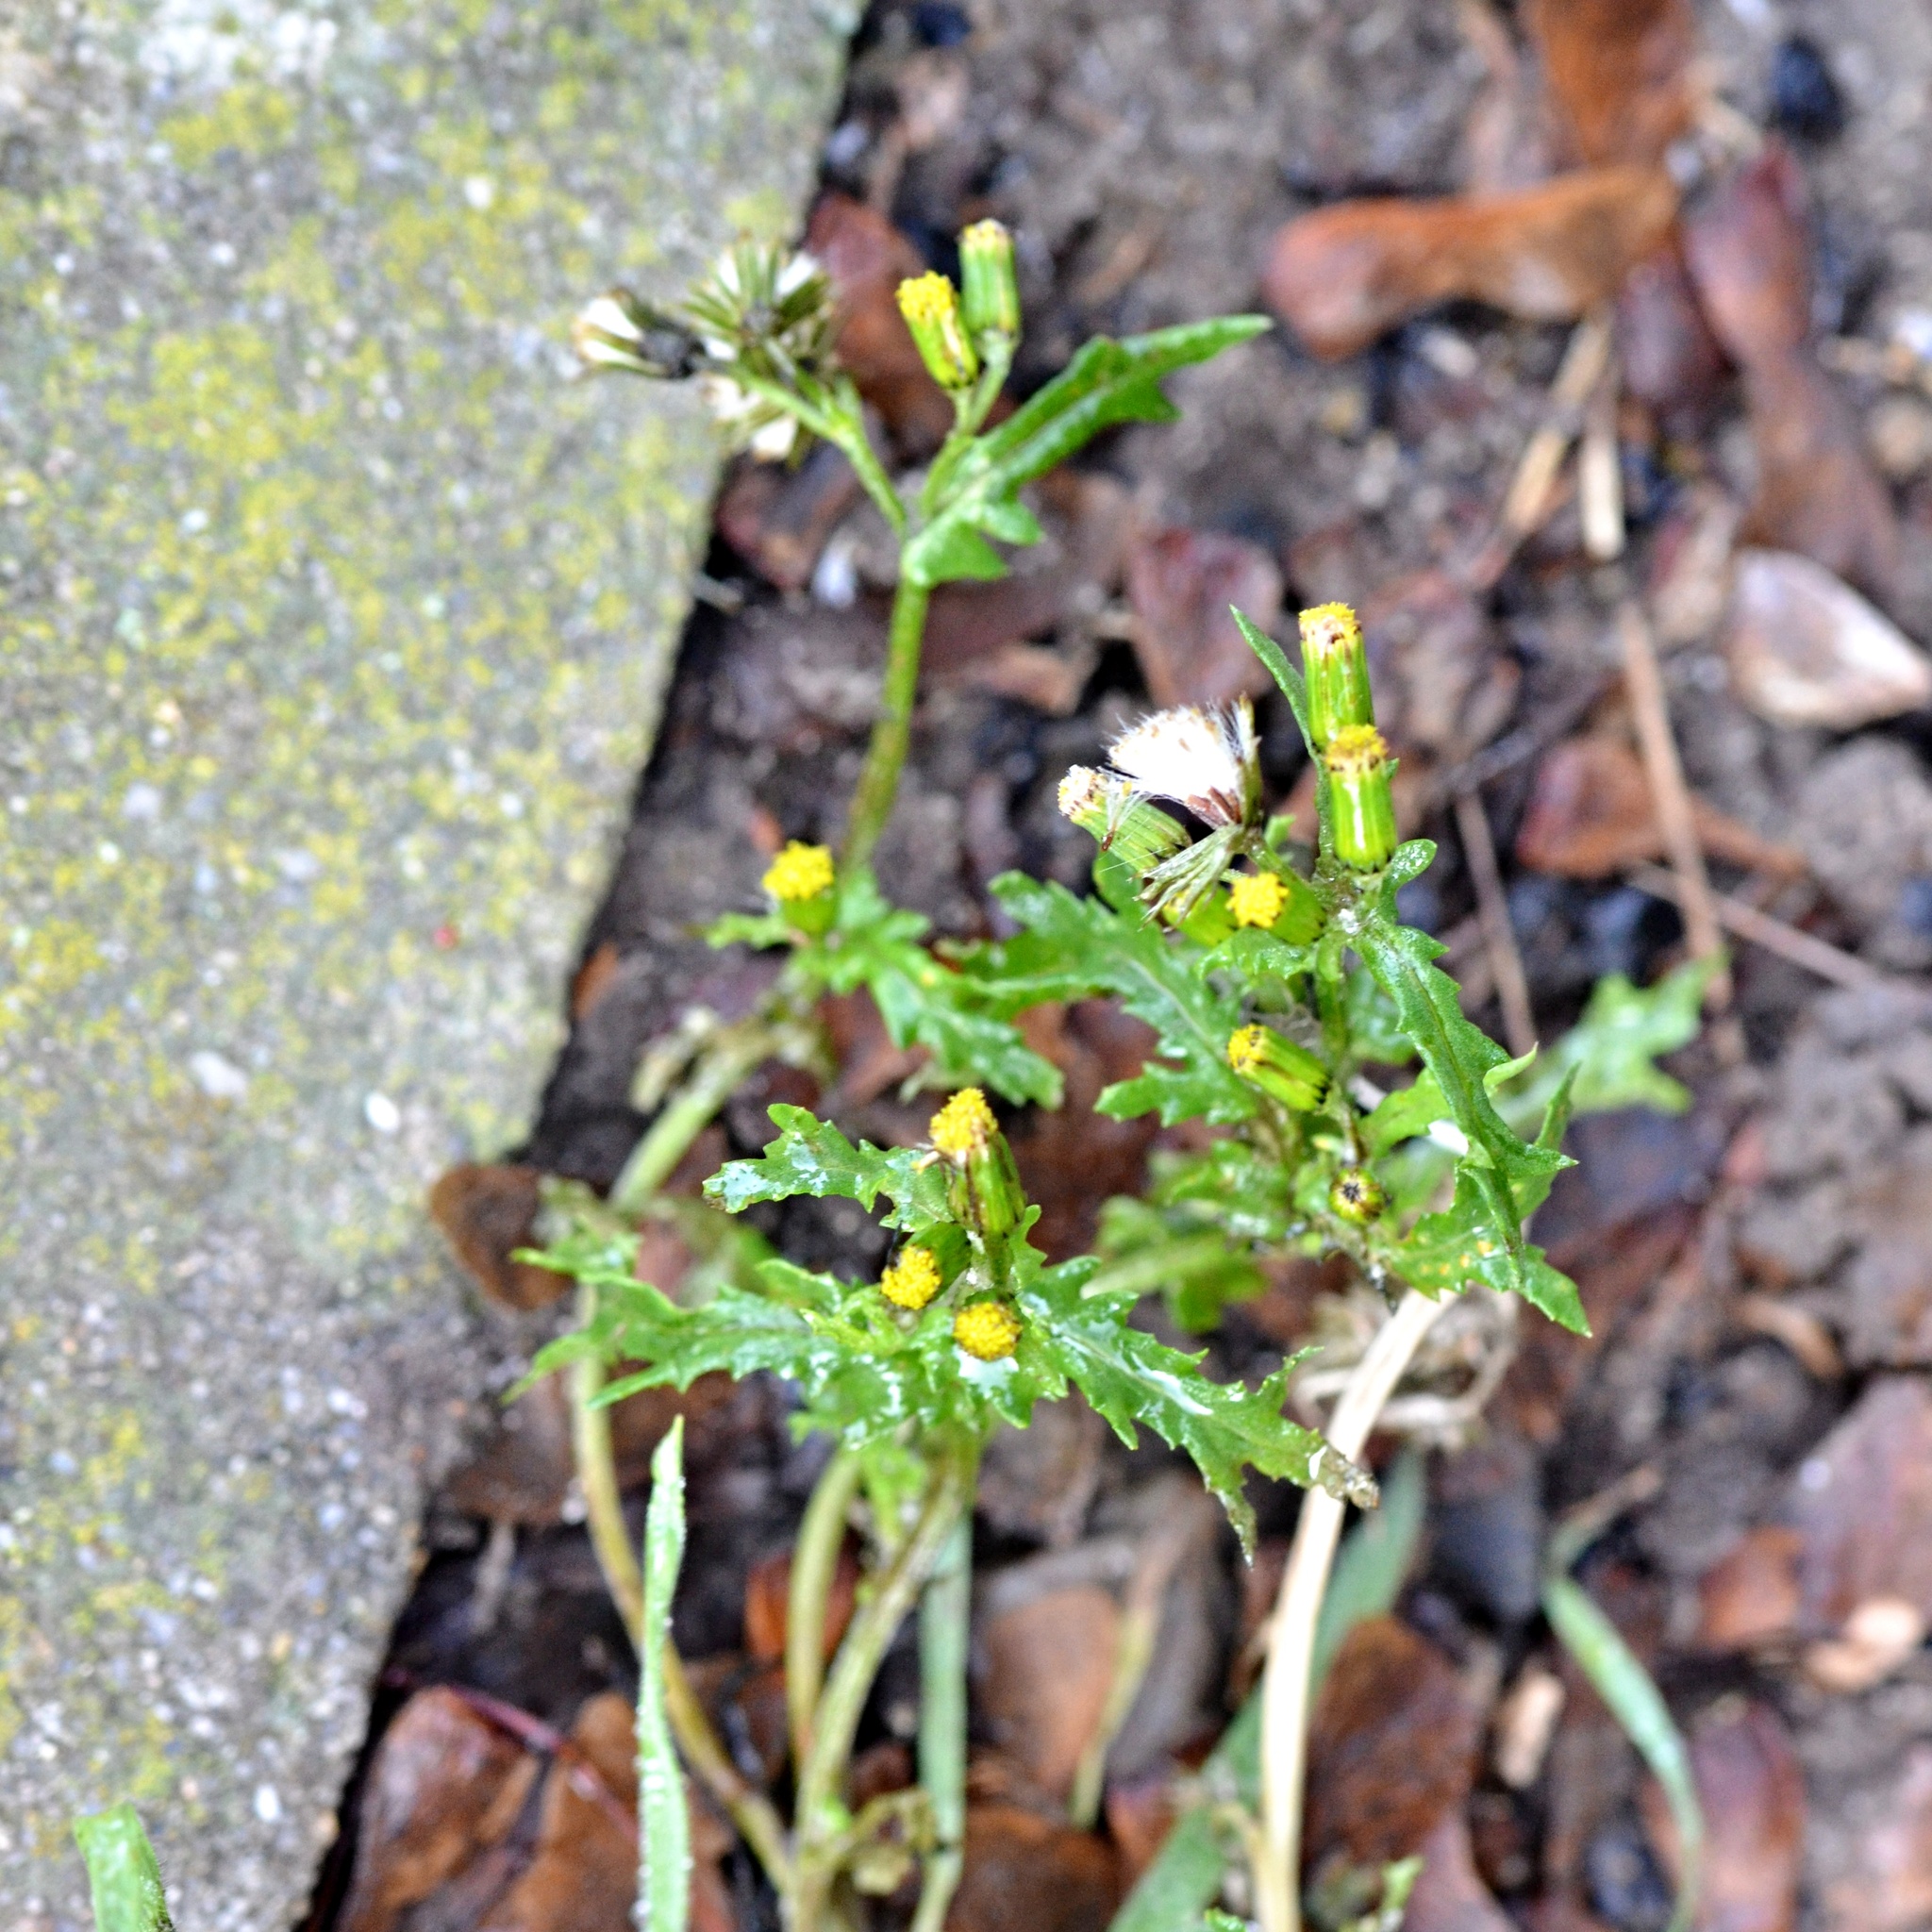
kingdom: Plantae
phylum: Tracheophyta
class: Magnoliopsida
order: Asterales
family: Asteraceae
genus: Senecio
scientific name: Senecio vulgaris
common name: Old-man-in-the-spring
